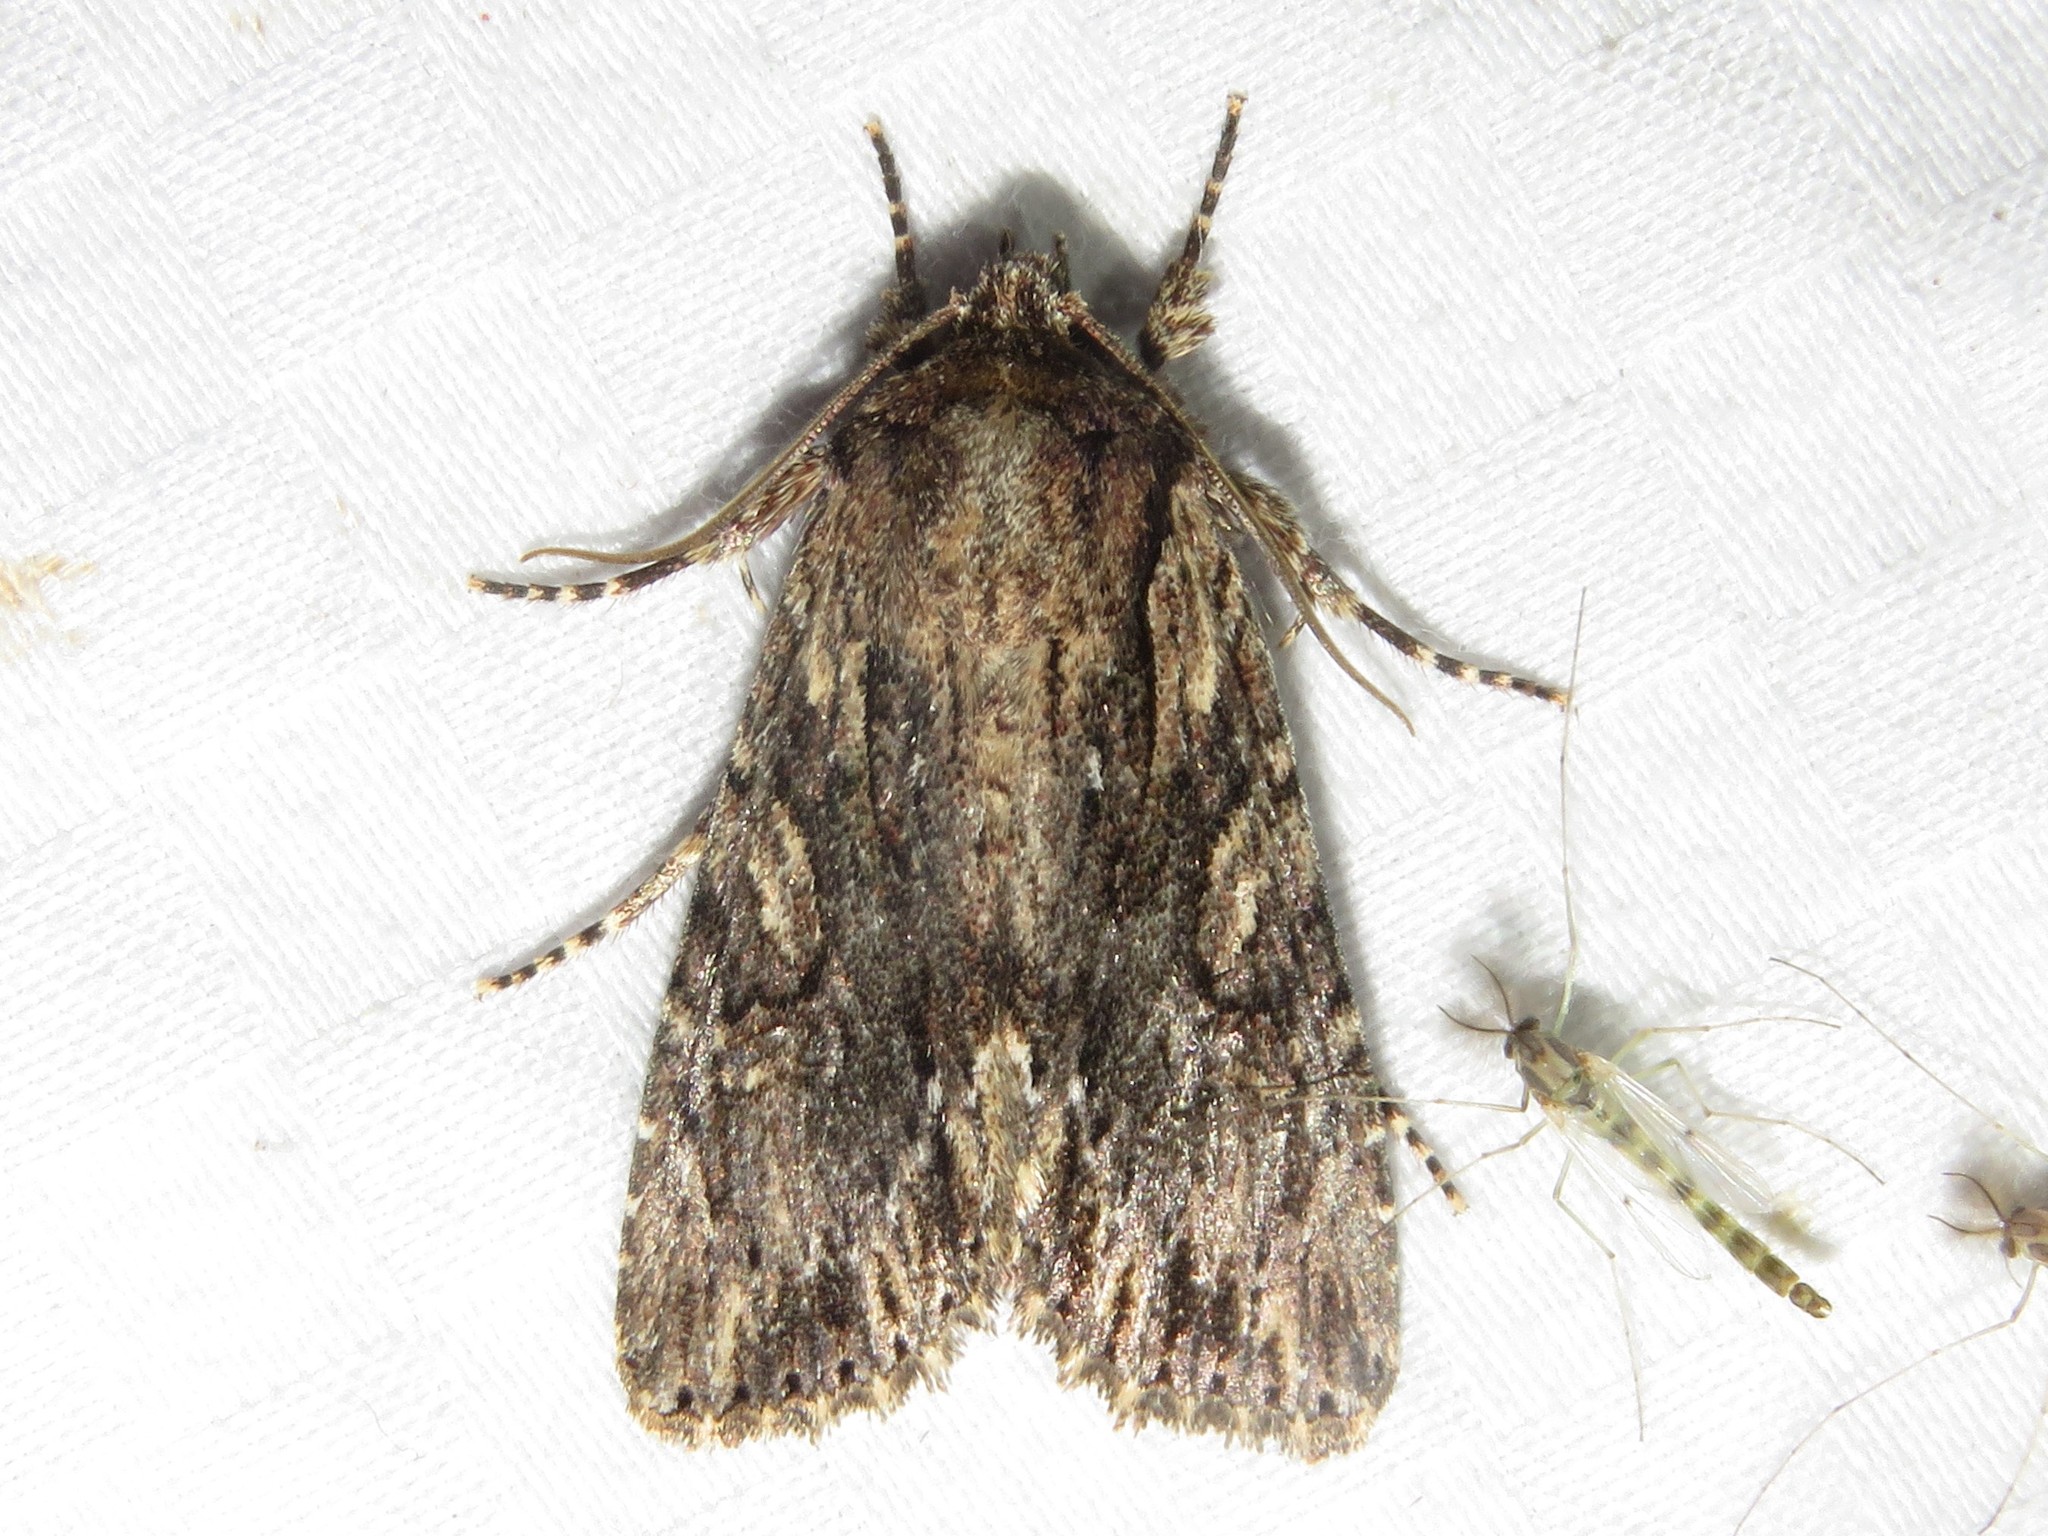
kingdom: Animalia
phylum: Arthropoda
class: Insecta
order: Lepidoptera
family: Noctuidae
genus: Achatia
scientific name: Achatia confusa
